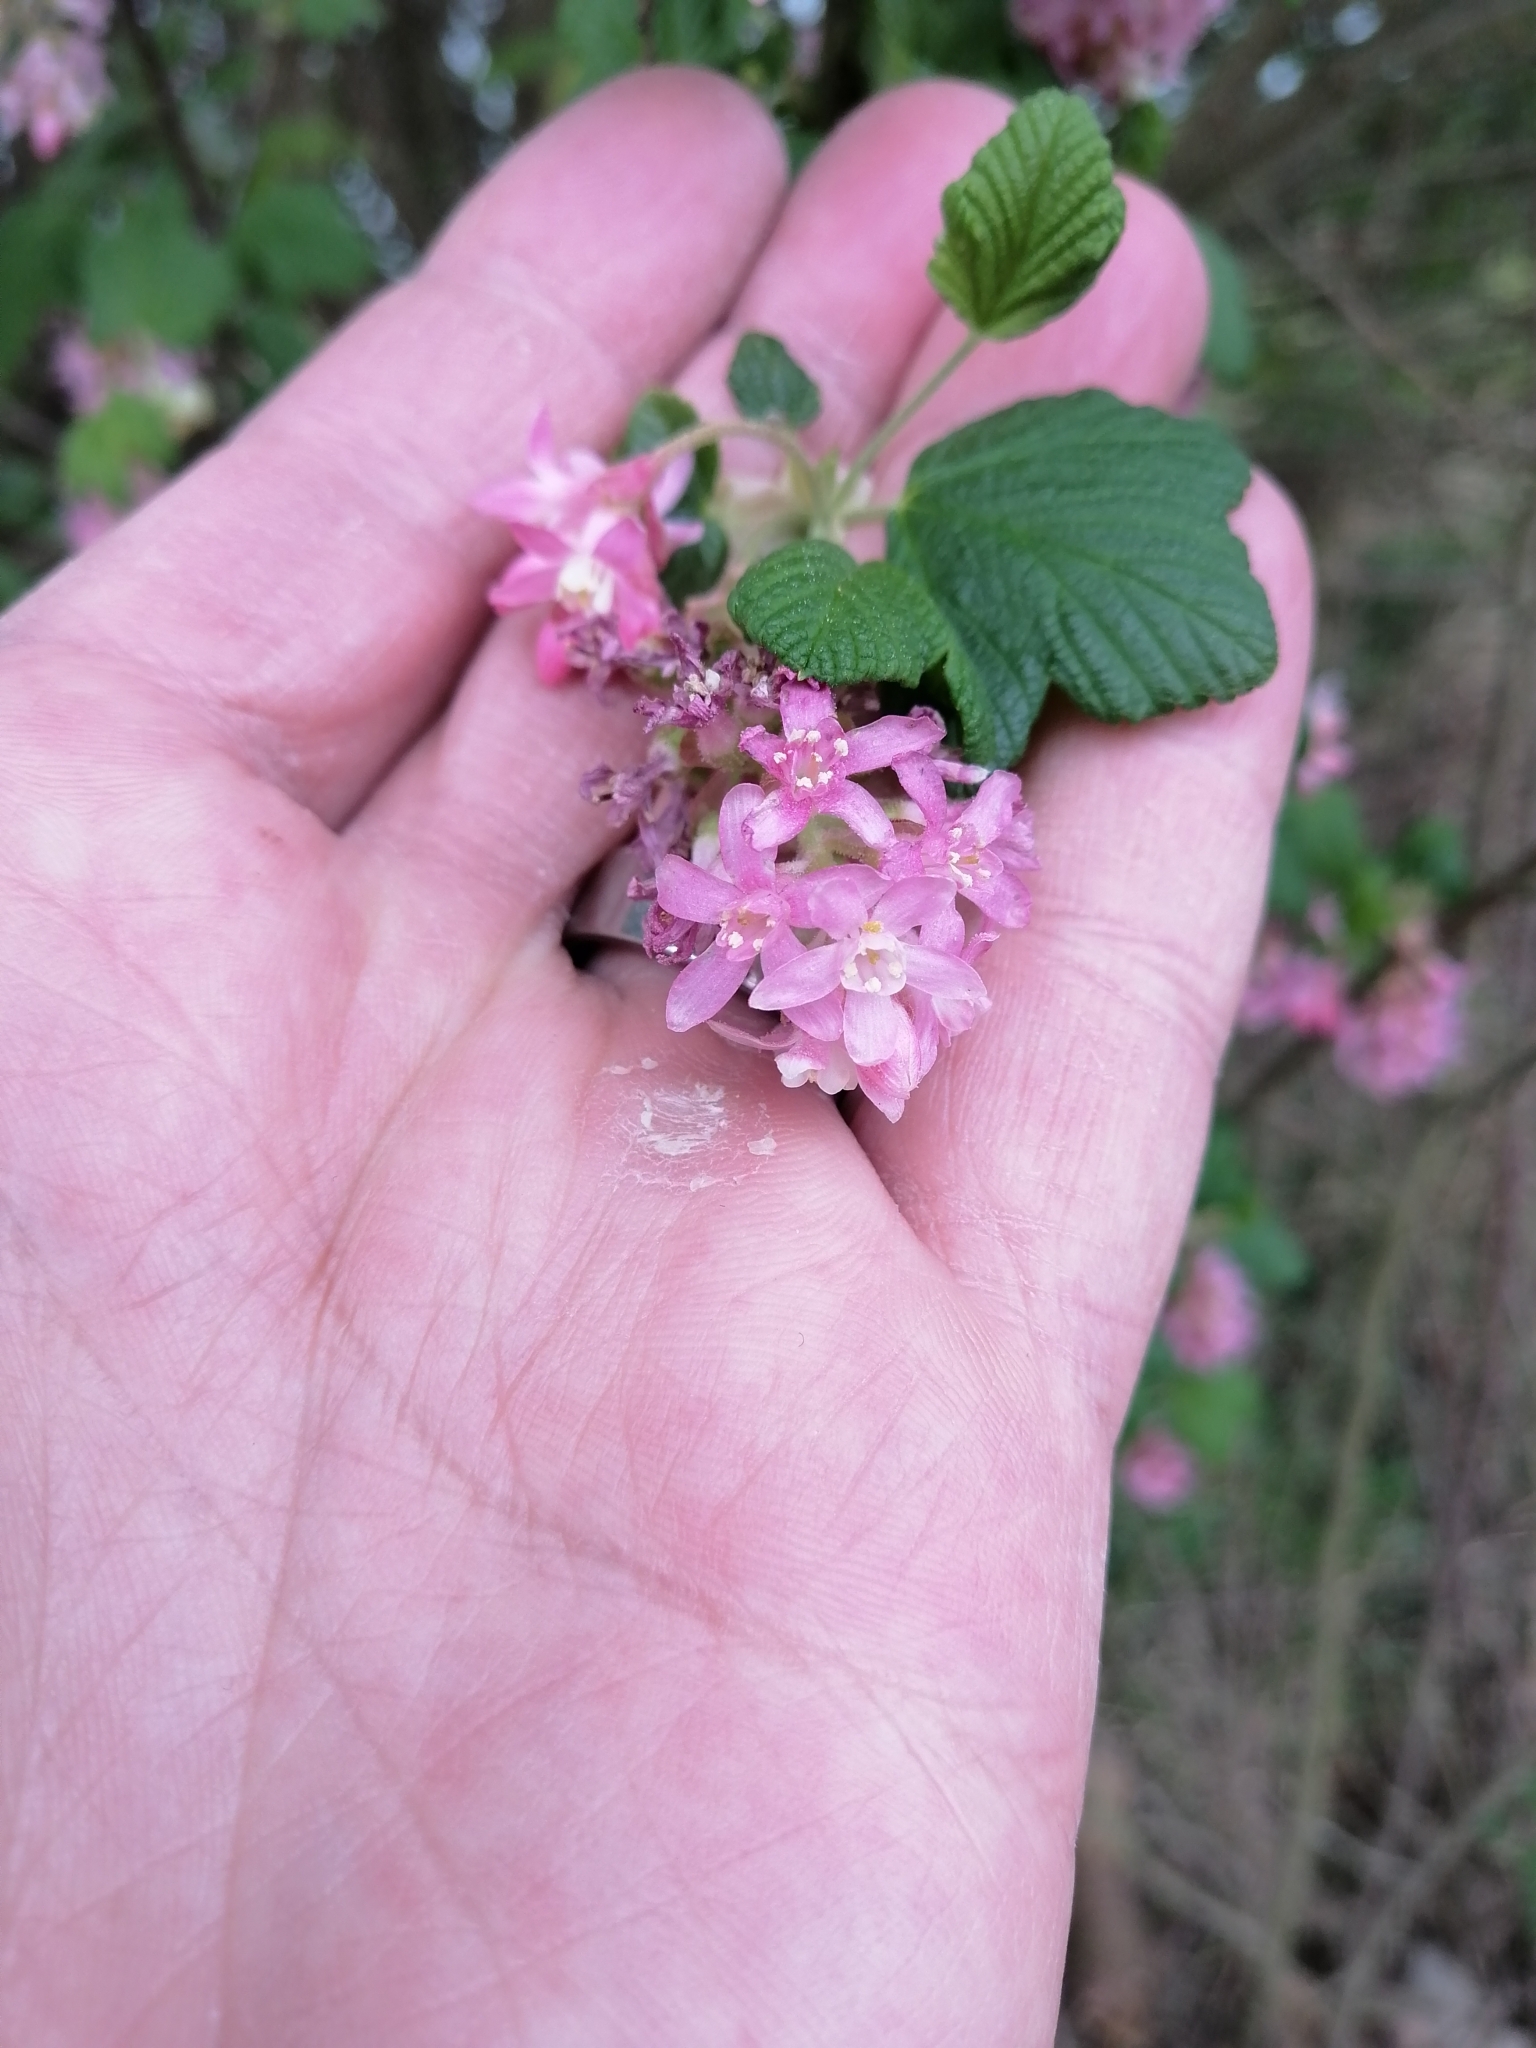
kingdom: Plantae
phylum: Tracheophyta
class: Magnoliopsida
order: Saxifragales
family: Grossulariaceae
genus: Ribes
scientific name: Ribes sanguineum
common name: Flowering currant
